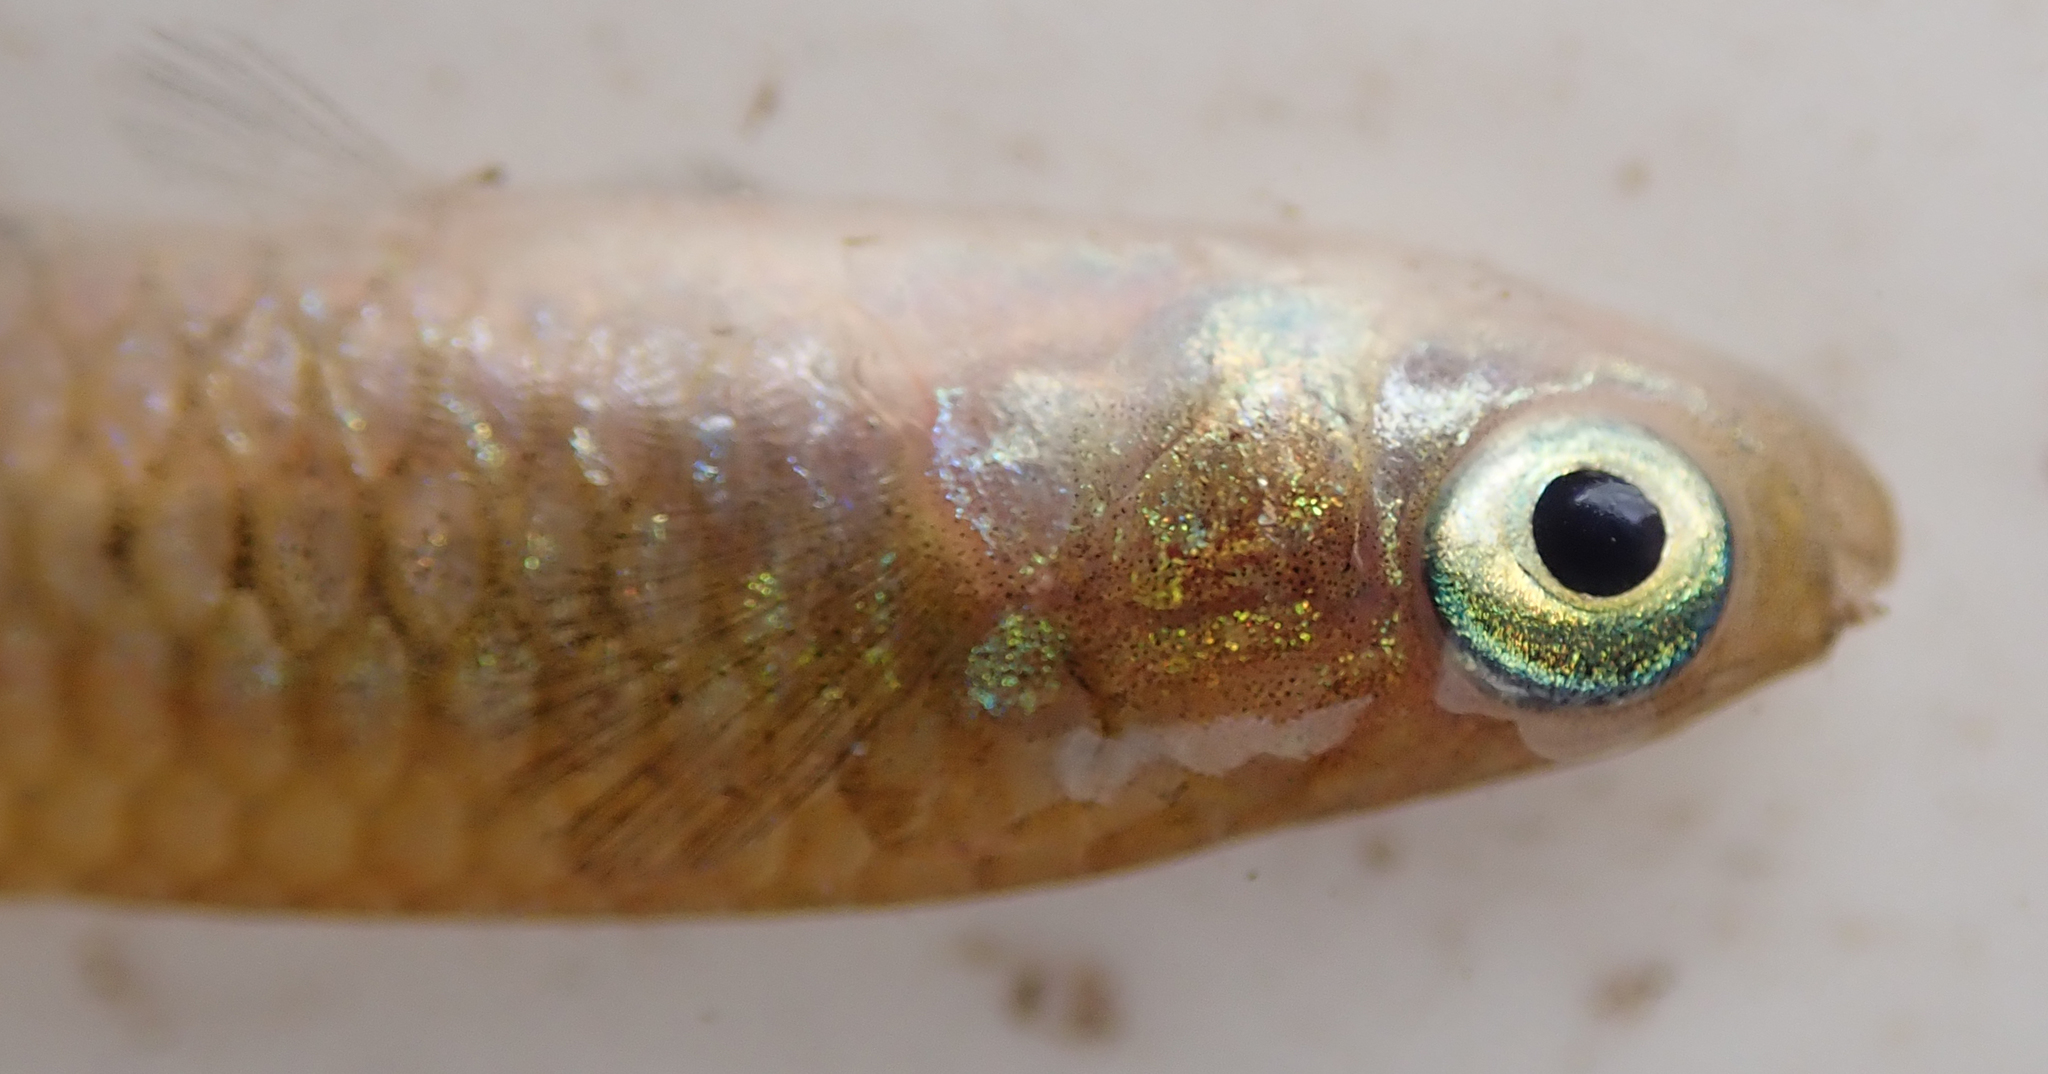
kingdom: Animalia
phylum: Chordata
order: Cyprinodontiformes
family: Poeciliidae
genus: Micropanchax
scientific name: Micropanchax hutereaui
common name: Meshscaled topminnow
